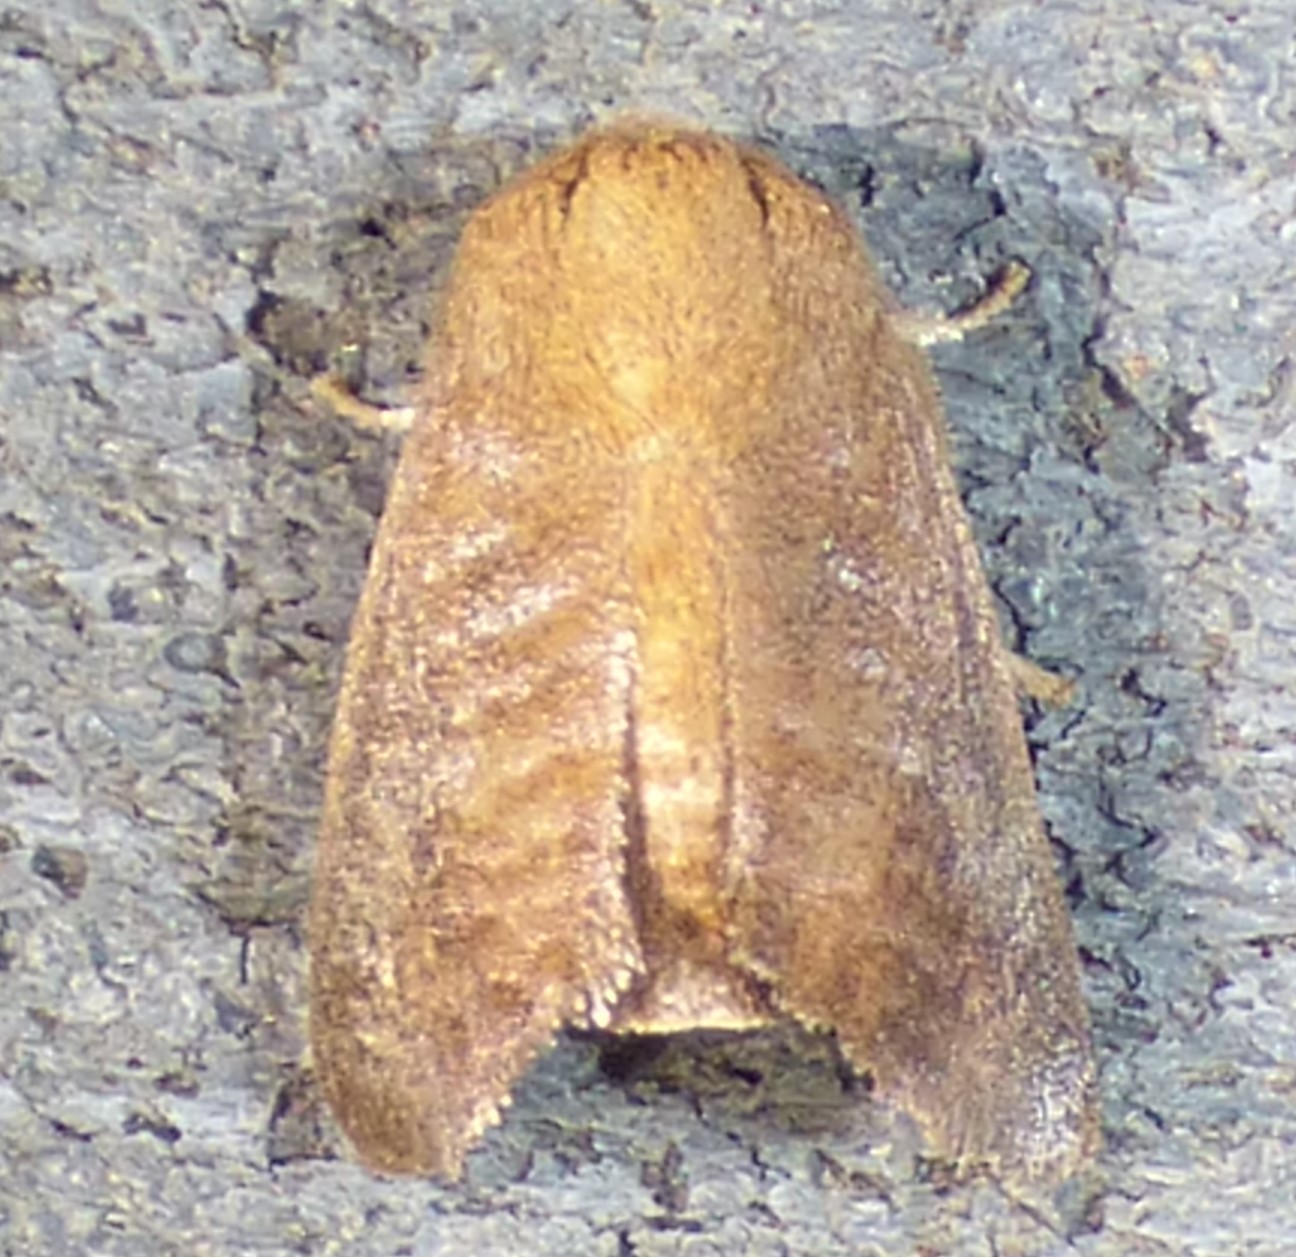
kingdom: Animalia
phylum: Arthropoda
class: Insecta
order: Lepidoptera
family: Limacodidae
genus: Isa
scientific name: Isa textula
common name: Crowned slug moth
